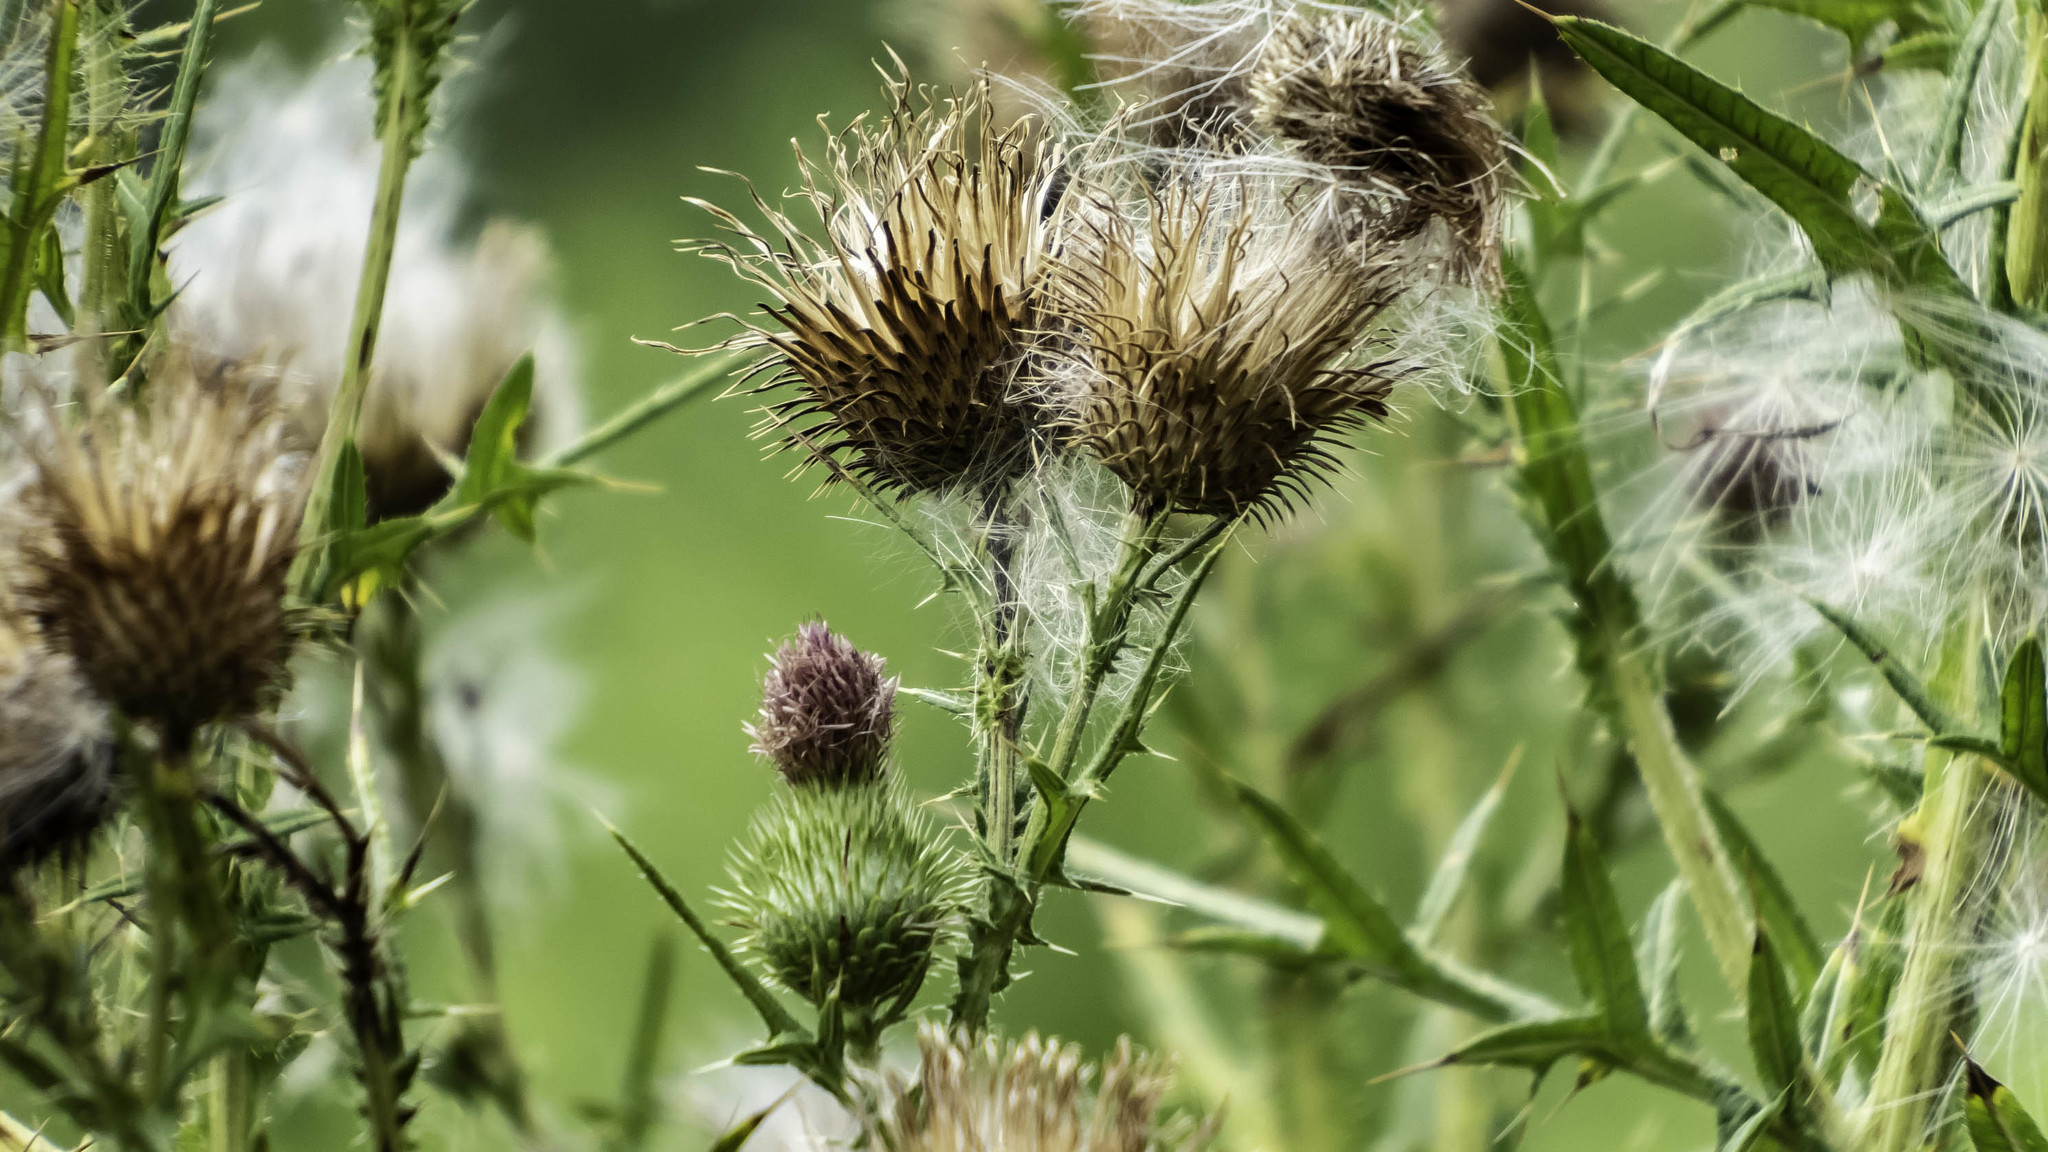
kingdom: Plantae
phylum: Tracheophyta
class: Magnoliopsida
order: Asterales
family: Asteraceae
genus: Cirsium
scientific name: Cirsium vulgare
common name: Bull thistle
